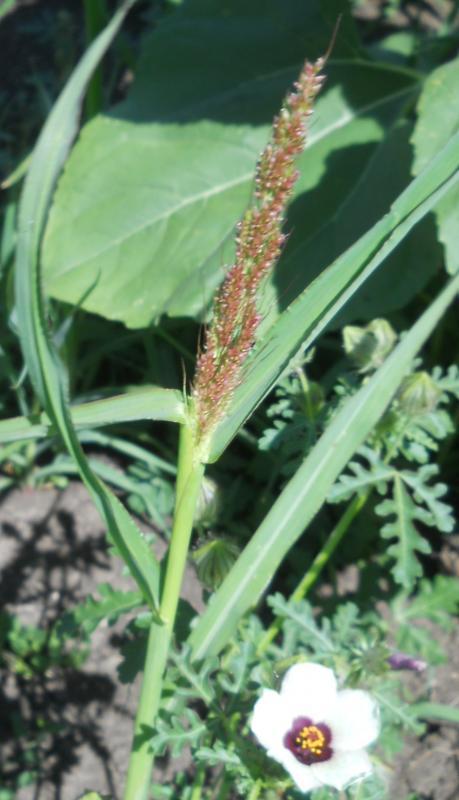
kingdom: Plantae
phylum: Tracheophyta
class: Liliopsida
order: Poales
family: Poaceae
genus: Echinochloa
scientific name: Echinochloa crus-galli
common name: Cockspur
